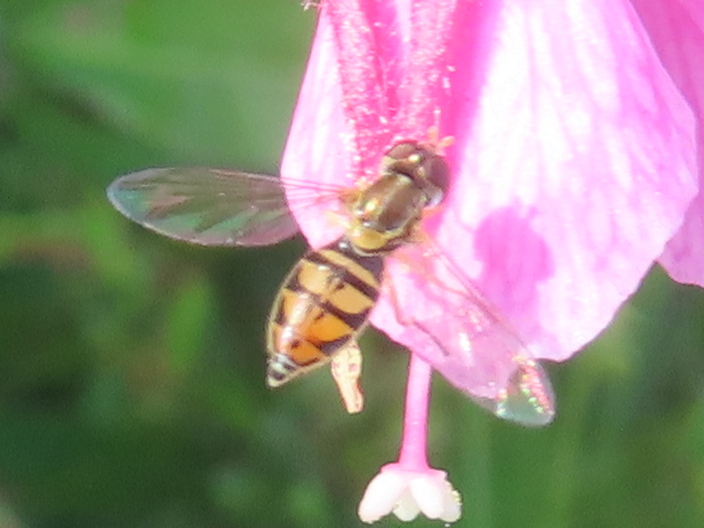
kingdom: Animalia
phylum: Arthropoda
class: Insecta
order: Diptera
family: Syrphidae
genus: Toxomerus
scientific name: Toxomerus marginatus
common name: Syrphid fly
